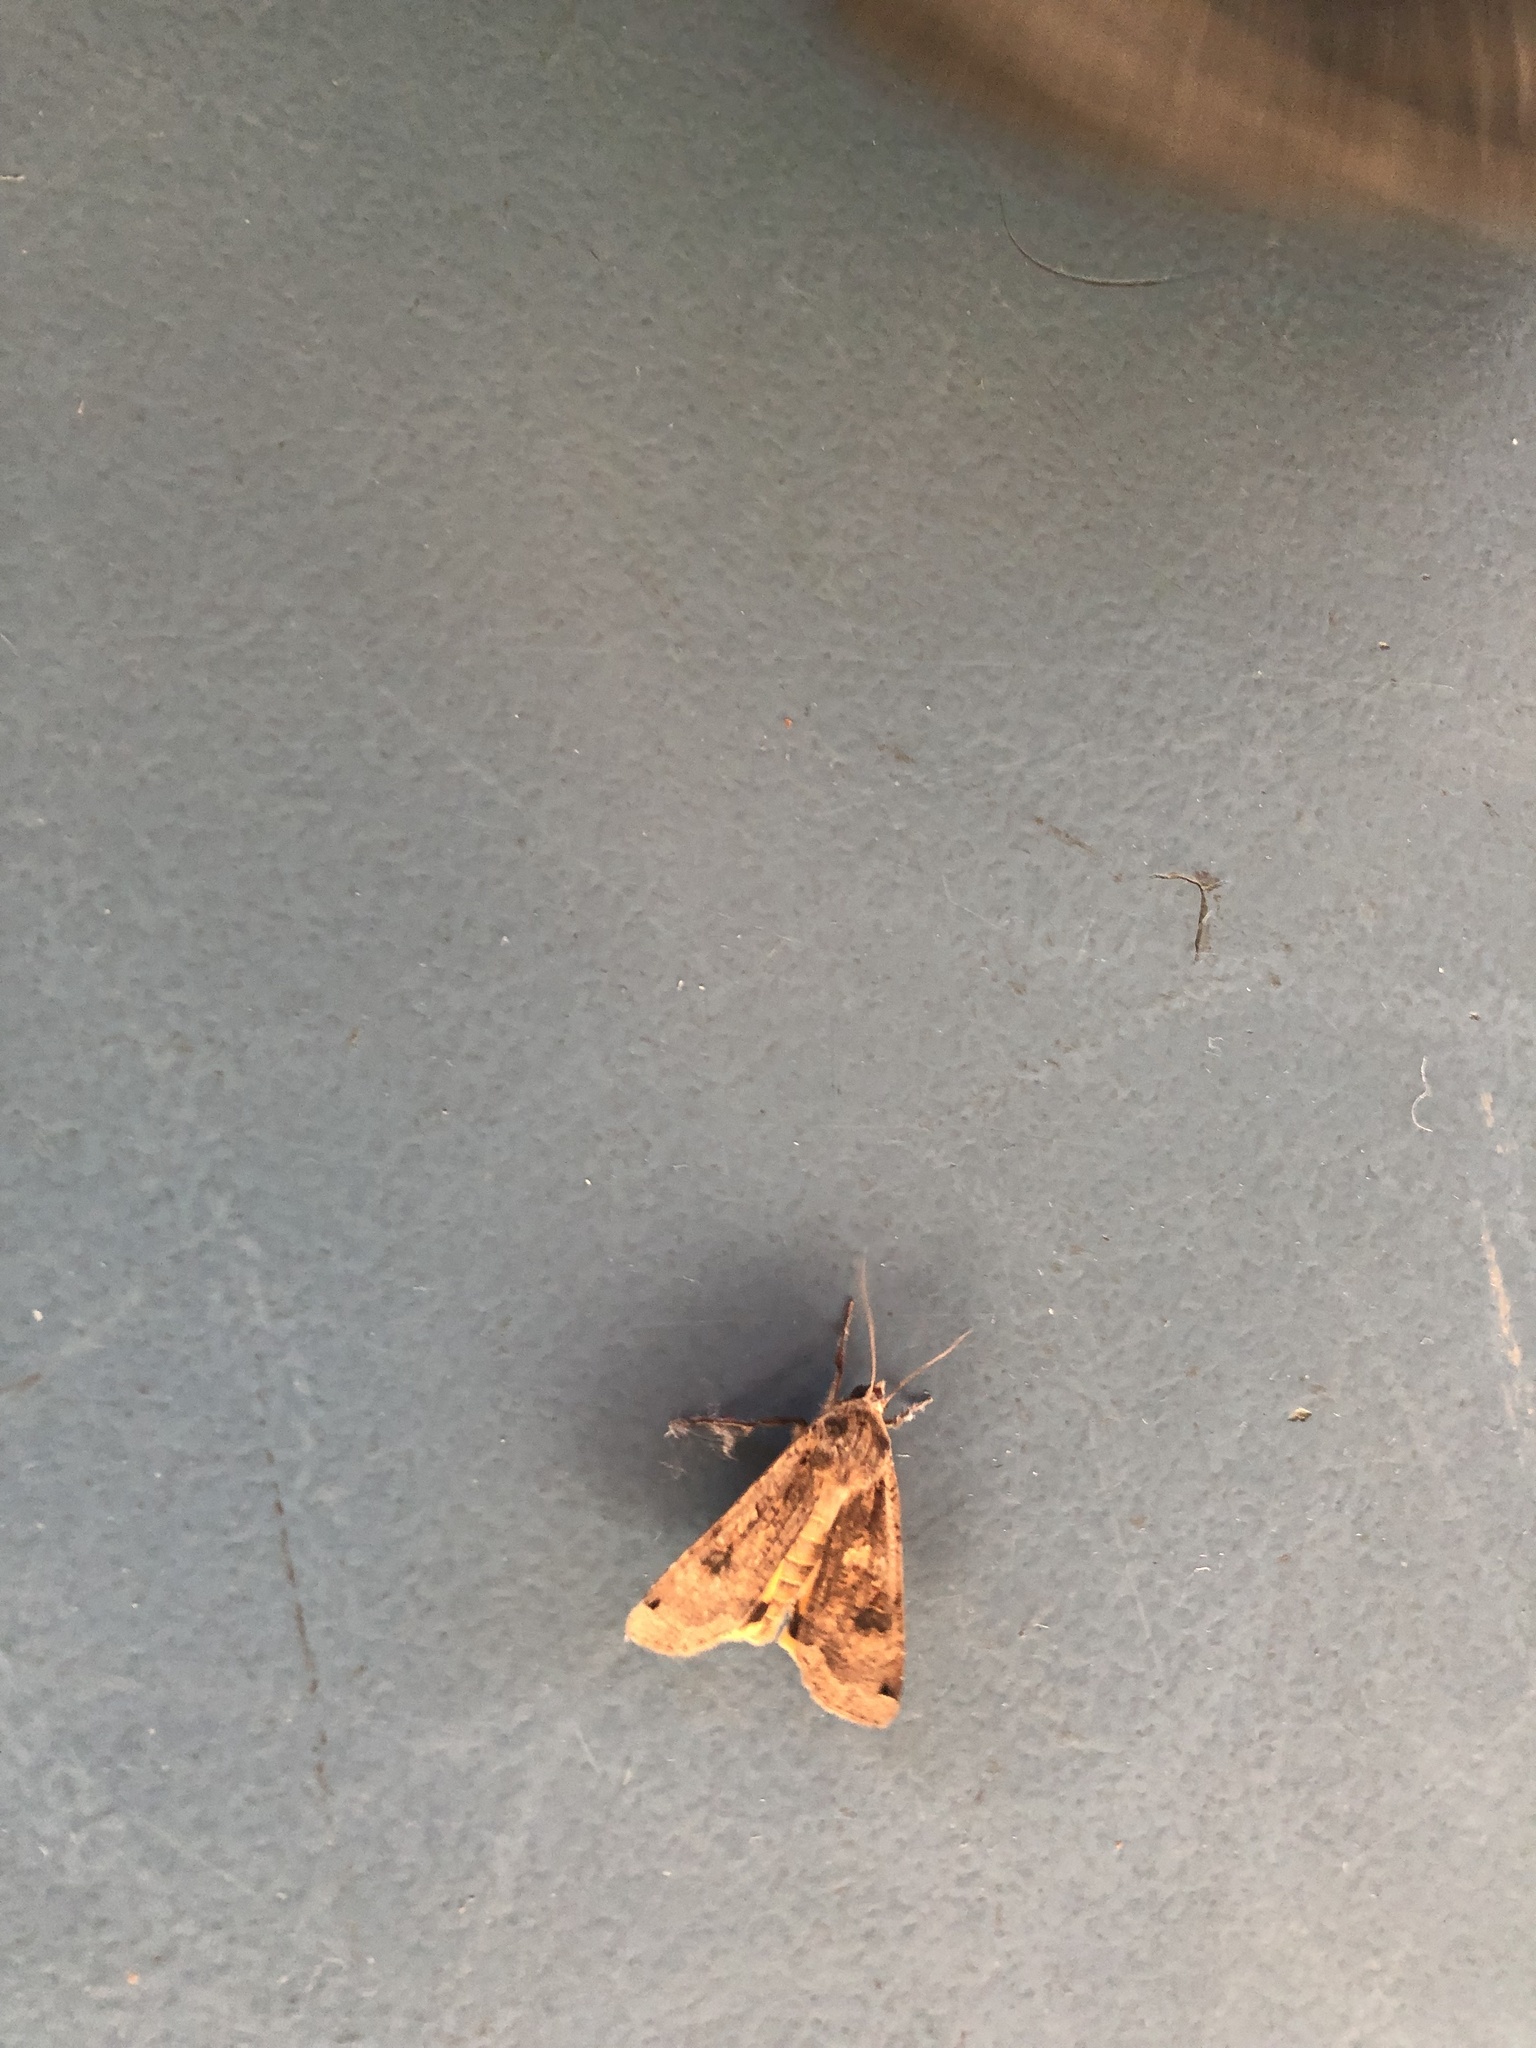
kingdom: Animalia
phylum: Arthropoda
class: Insecta
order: Lepidoptera
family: Noctuidae
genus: Noctua
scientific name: Noctua pronuba
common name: Large yellow underwing
